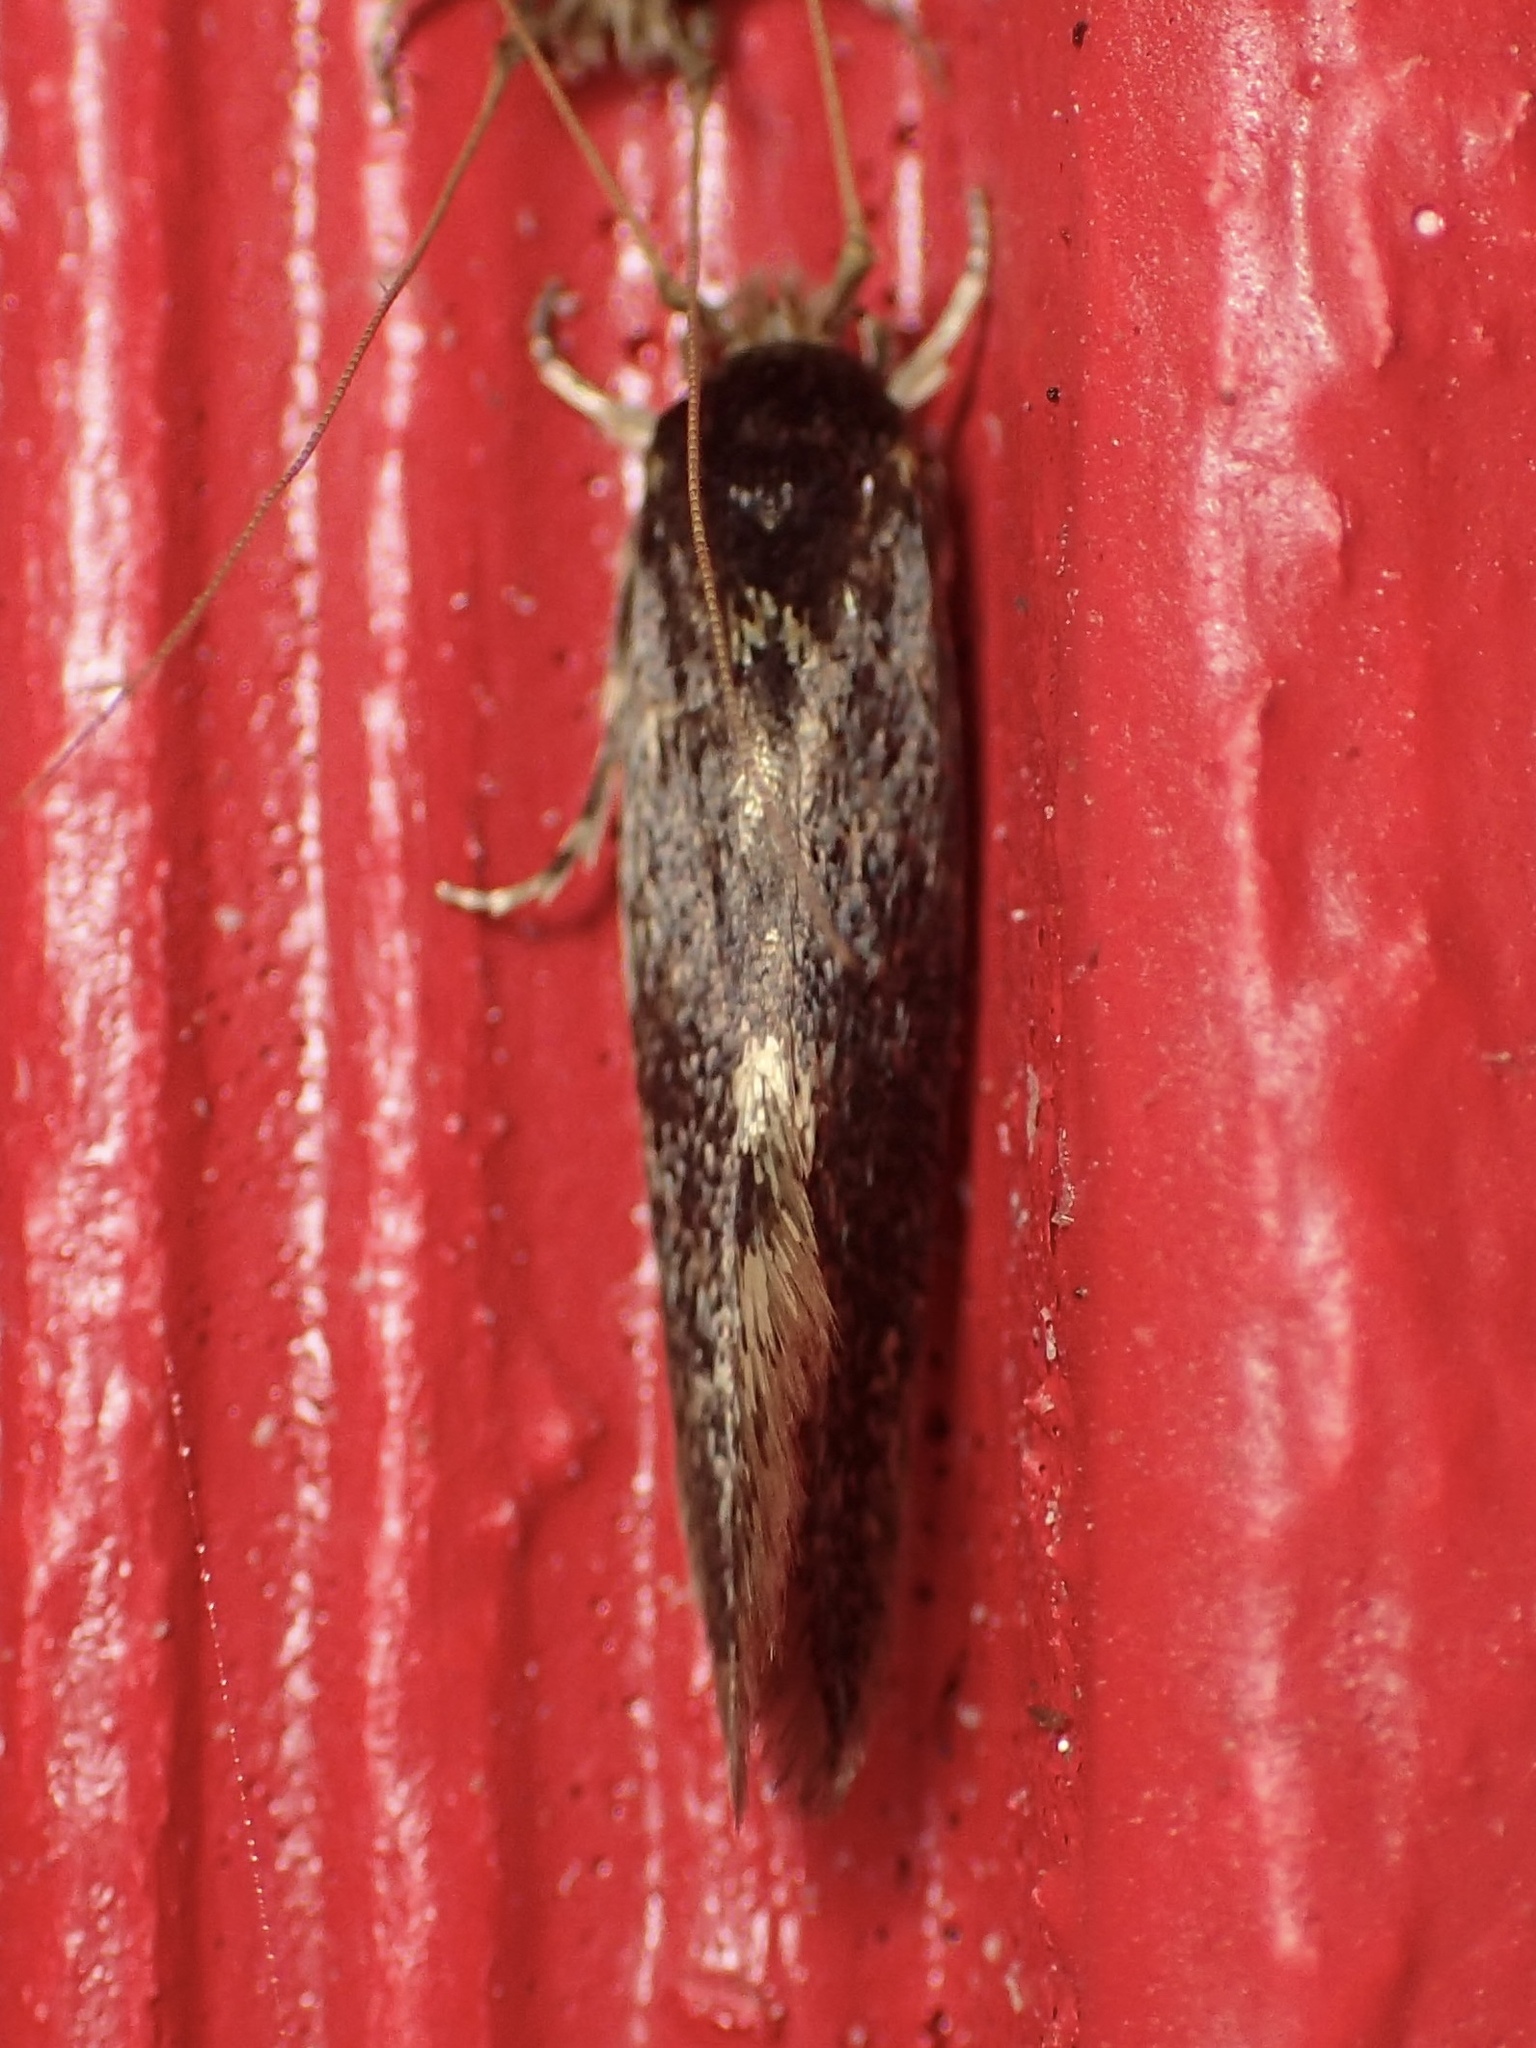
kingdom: Animalia
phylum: Arthropoda
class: Insecta
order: Lepidoptera
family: Tineidae
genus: Opogona
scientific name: Opogona omoscopa
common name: Moth
